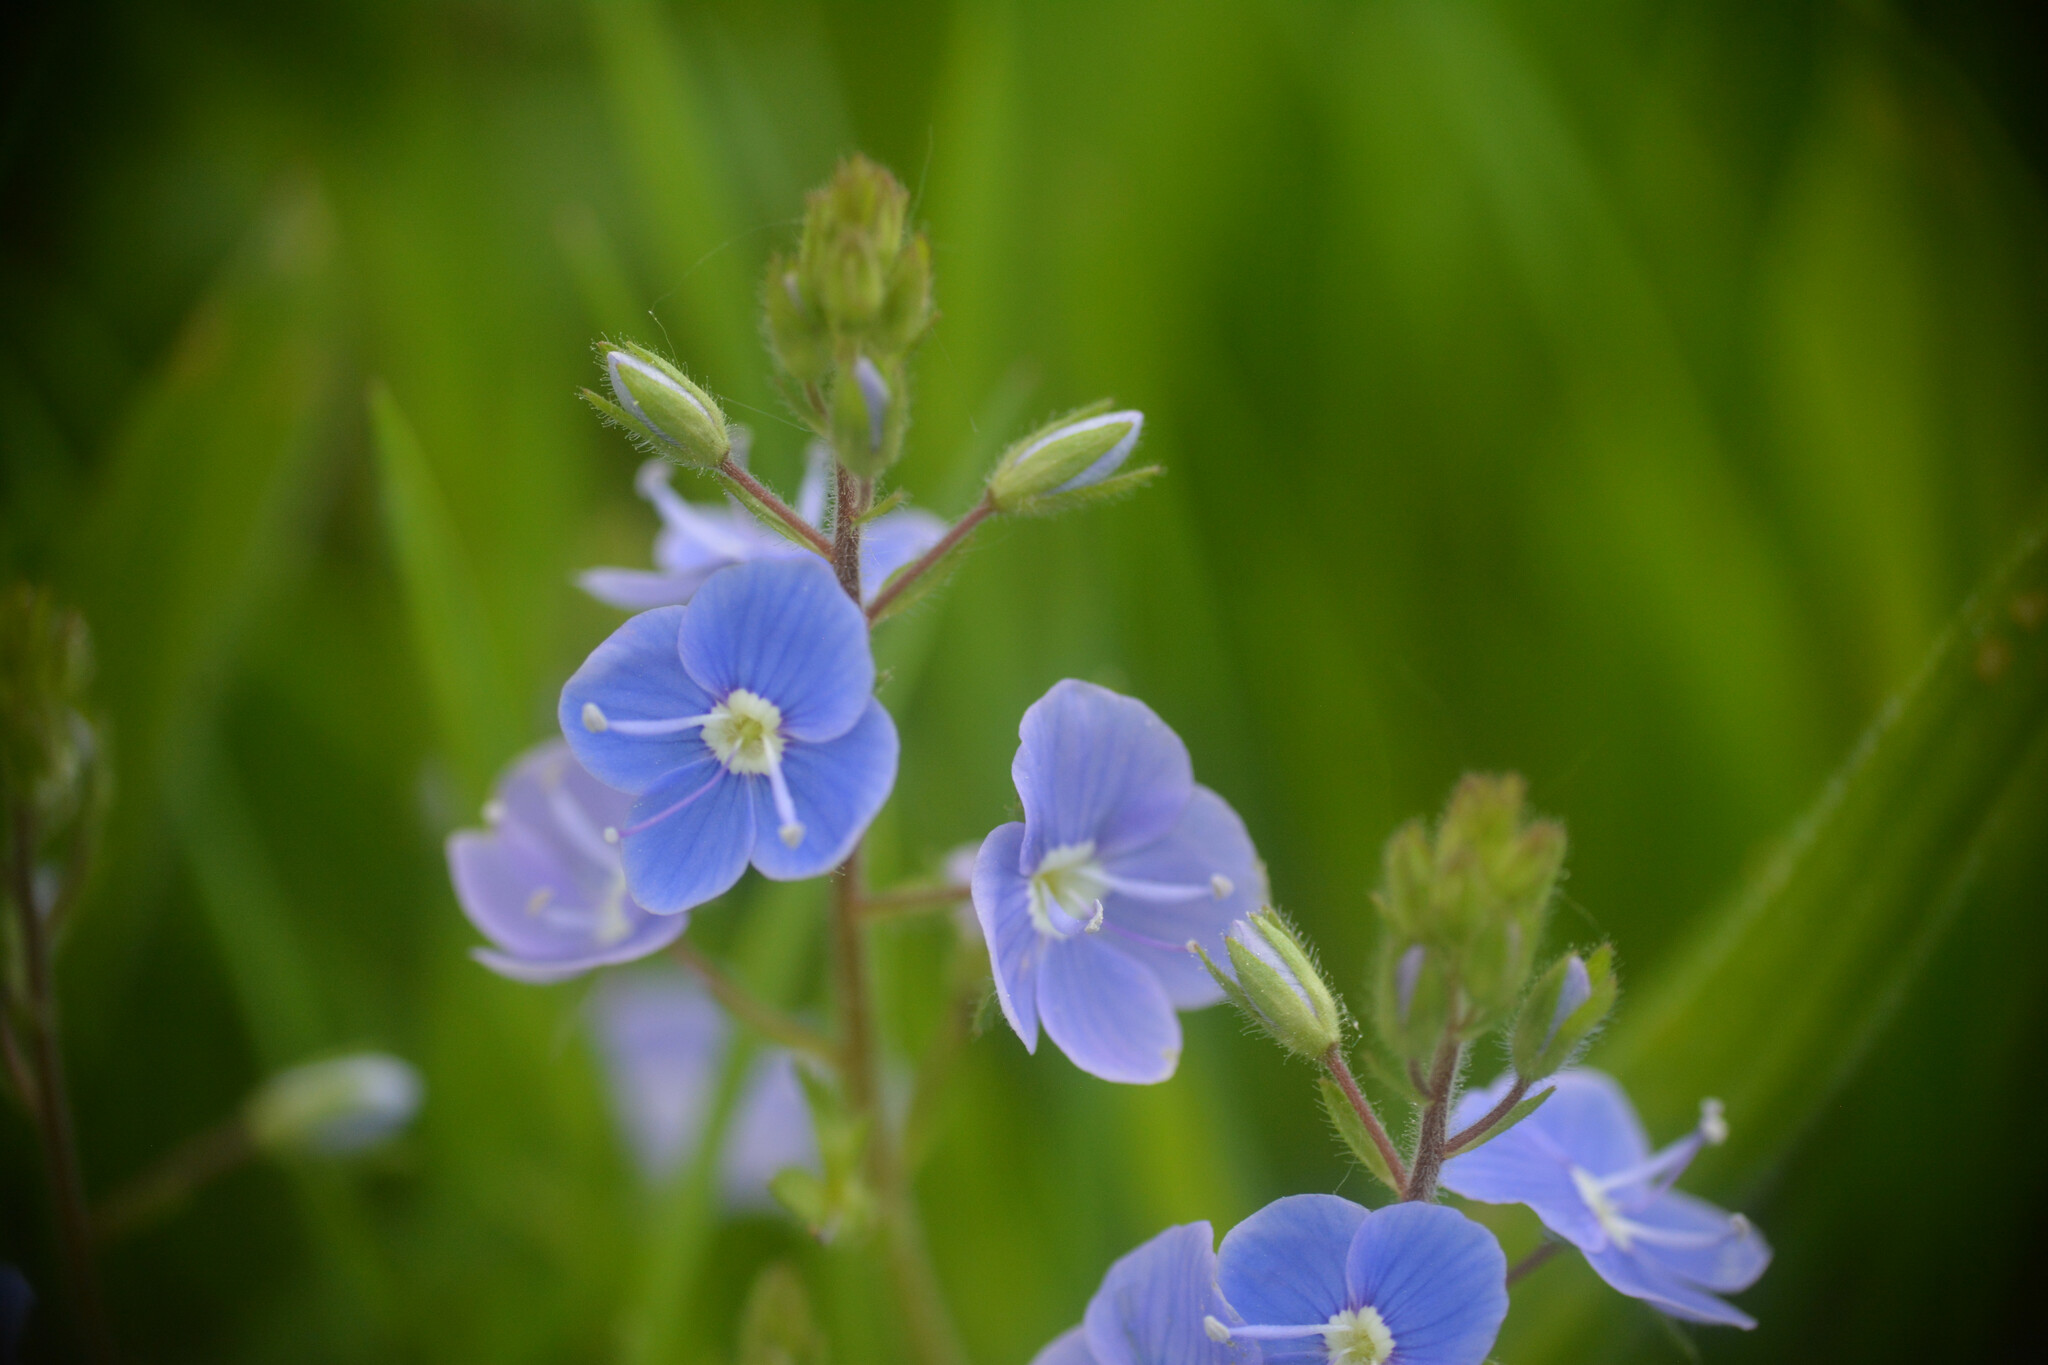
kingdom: Plantae
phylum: Tracheophyta
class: Magnoliopsida
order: Lamiales
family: Plantaginaceae
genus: Veronica
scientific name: Veronica chamaedrys
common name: Germander speedwell
